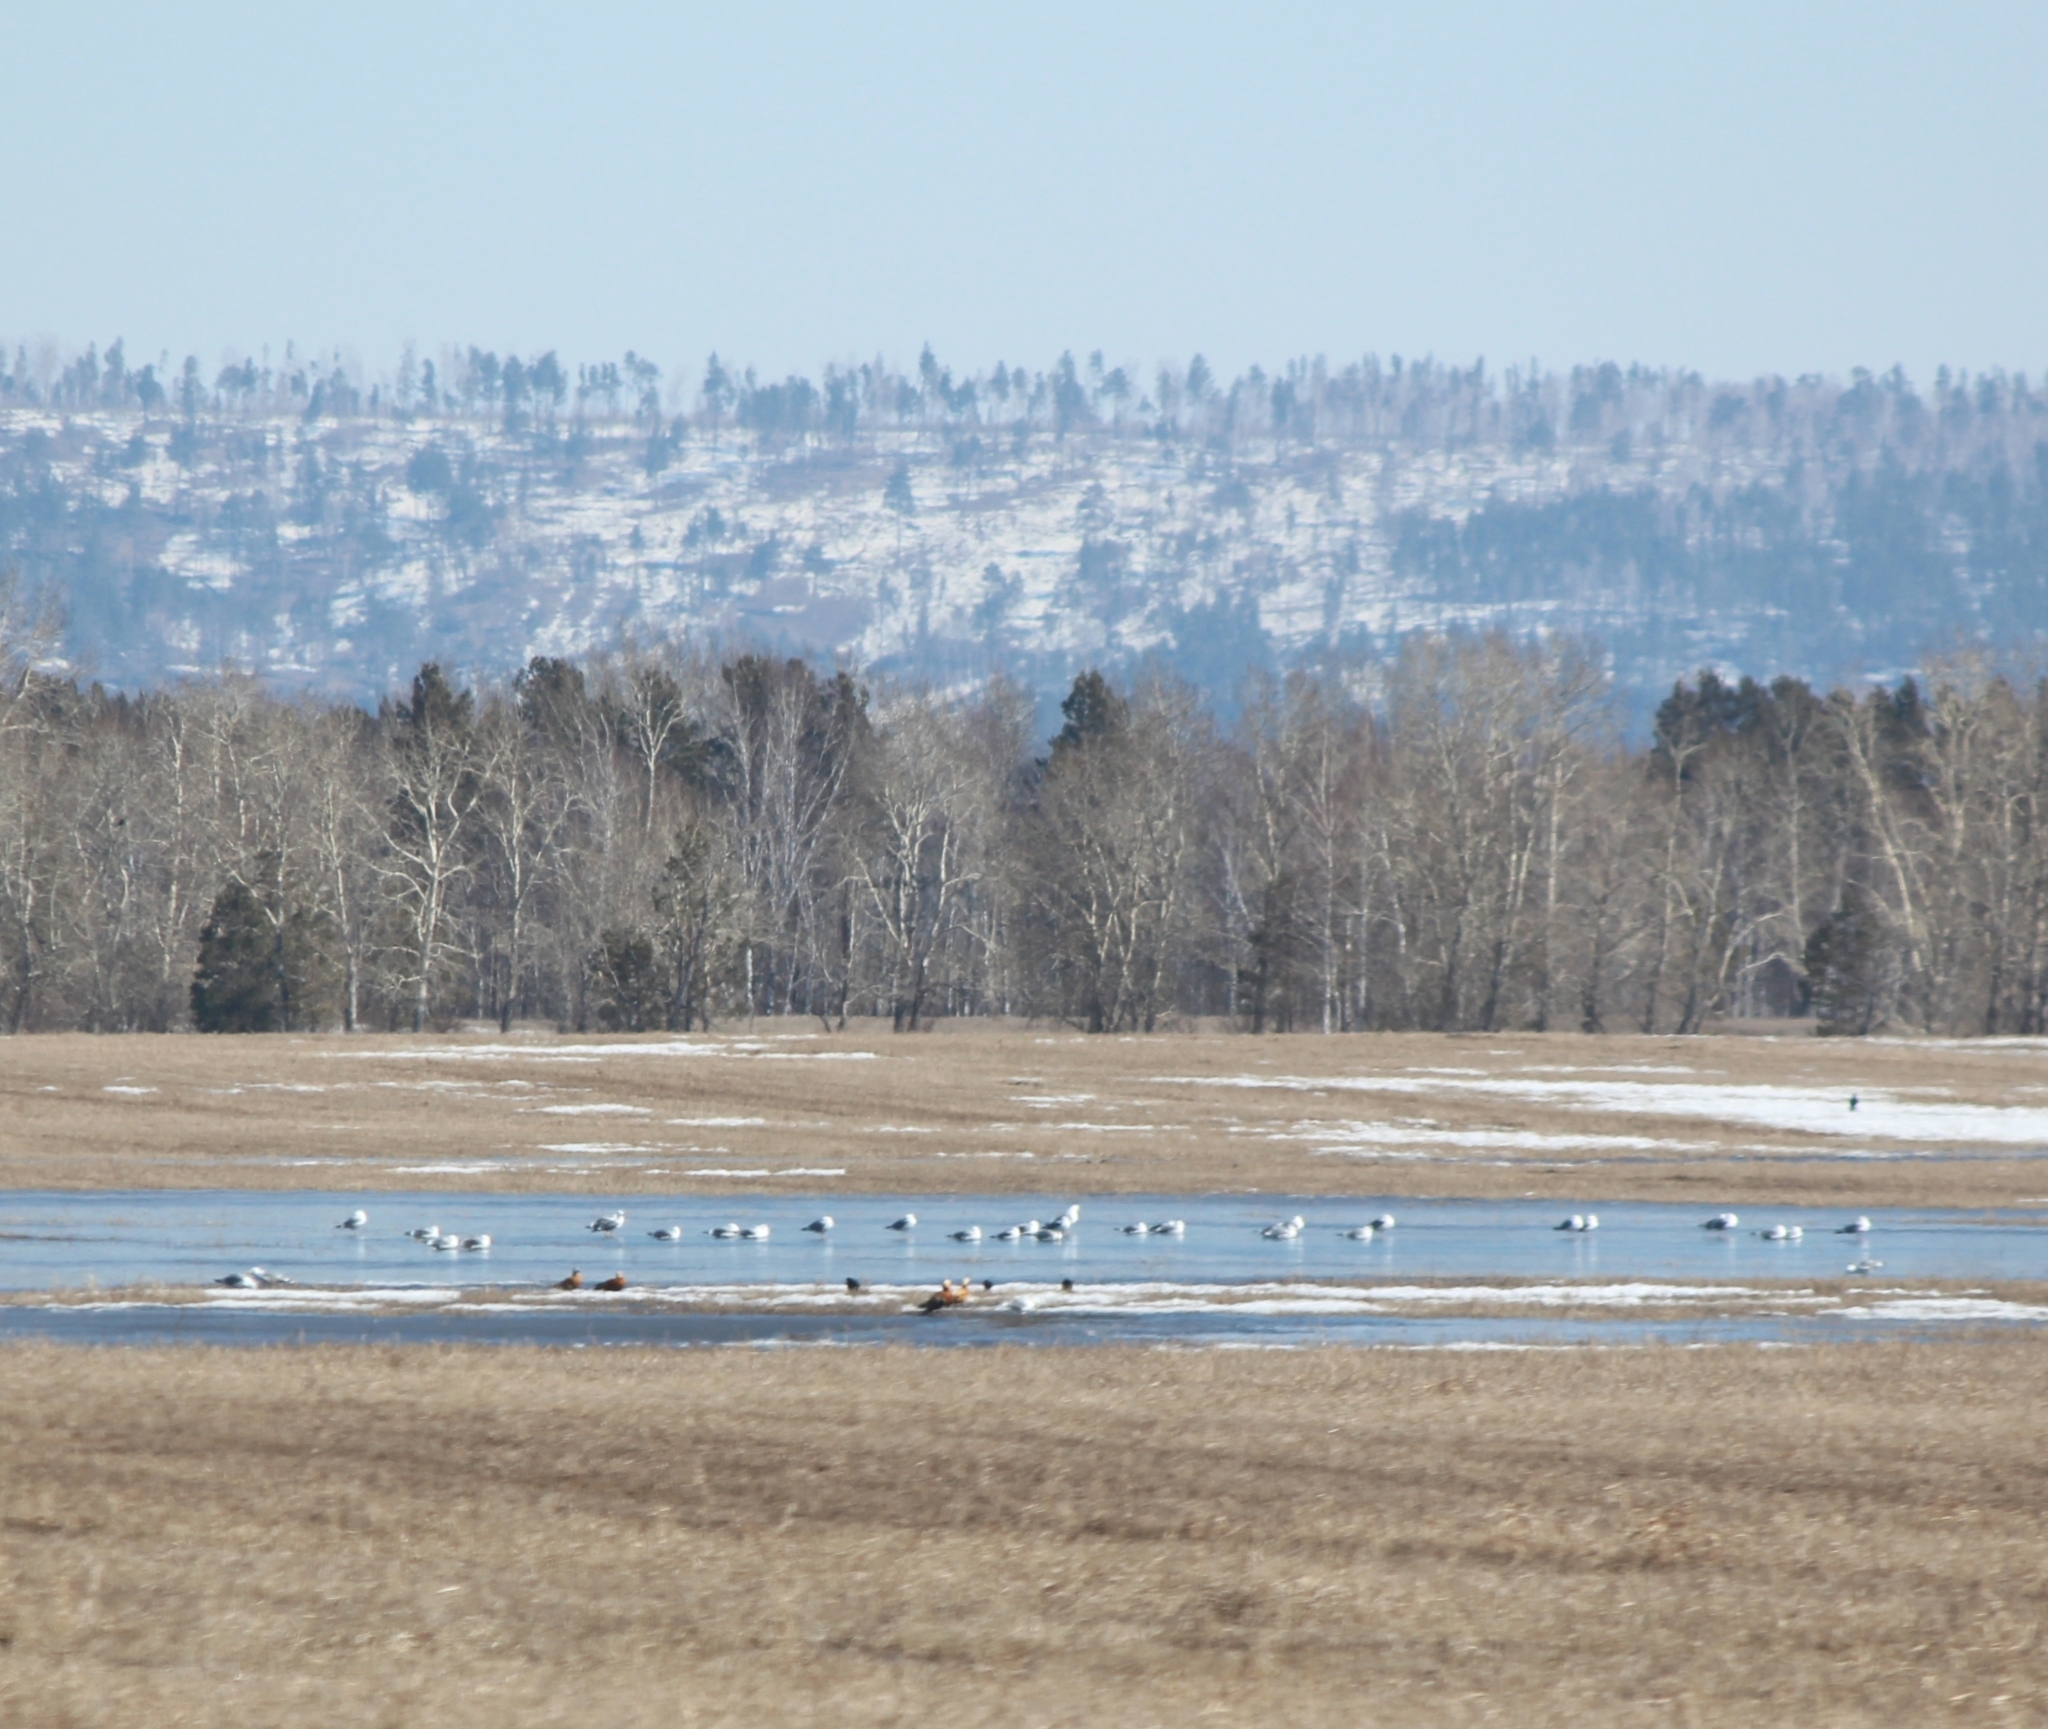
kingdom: Animalia
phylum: Chordata
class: Aves
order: Anseriformes
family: Anatidae
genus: Tadorna
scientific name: Tadorna ferruginea
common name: Ruddy shelduck
